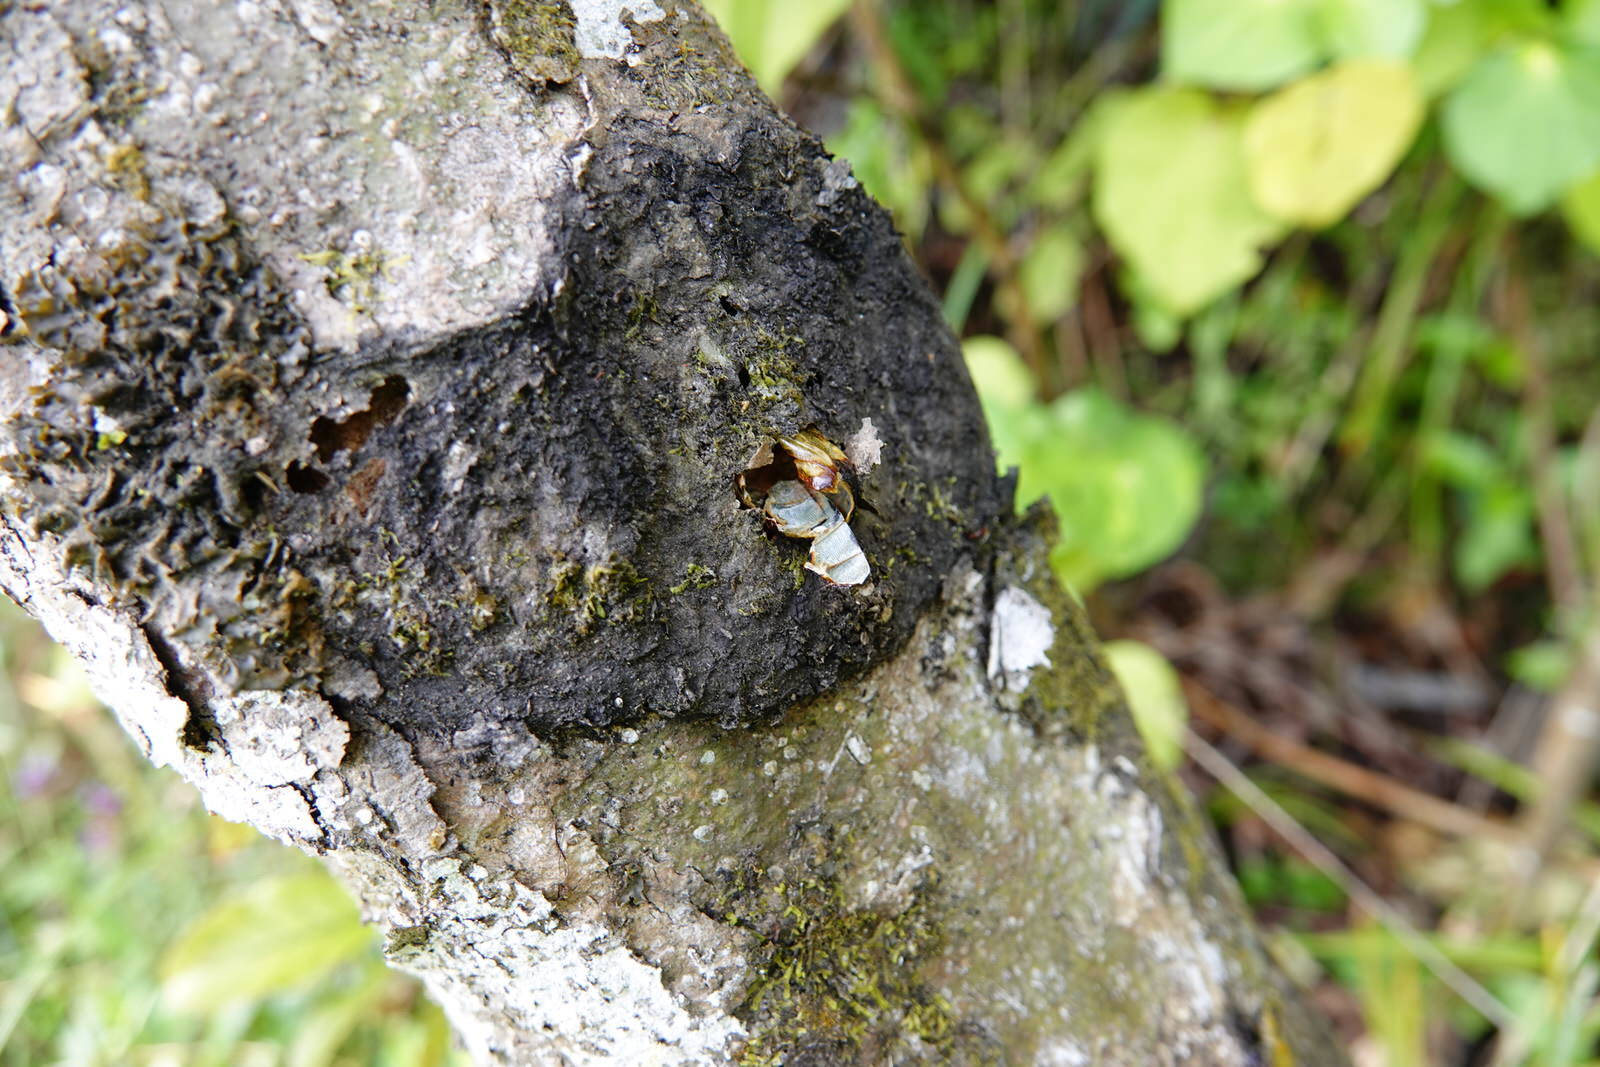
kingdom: Animalia
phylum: Arthropoda
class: Insecta
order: Lepidoptera
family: Hepialidae
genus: Aenetus
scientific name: Aenetus virescens
